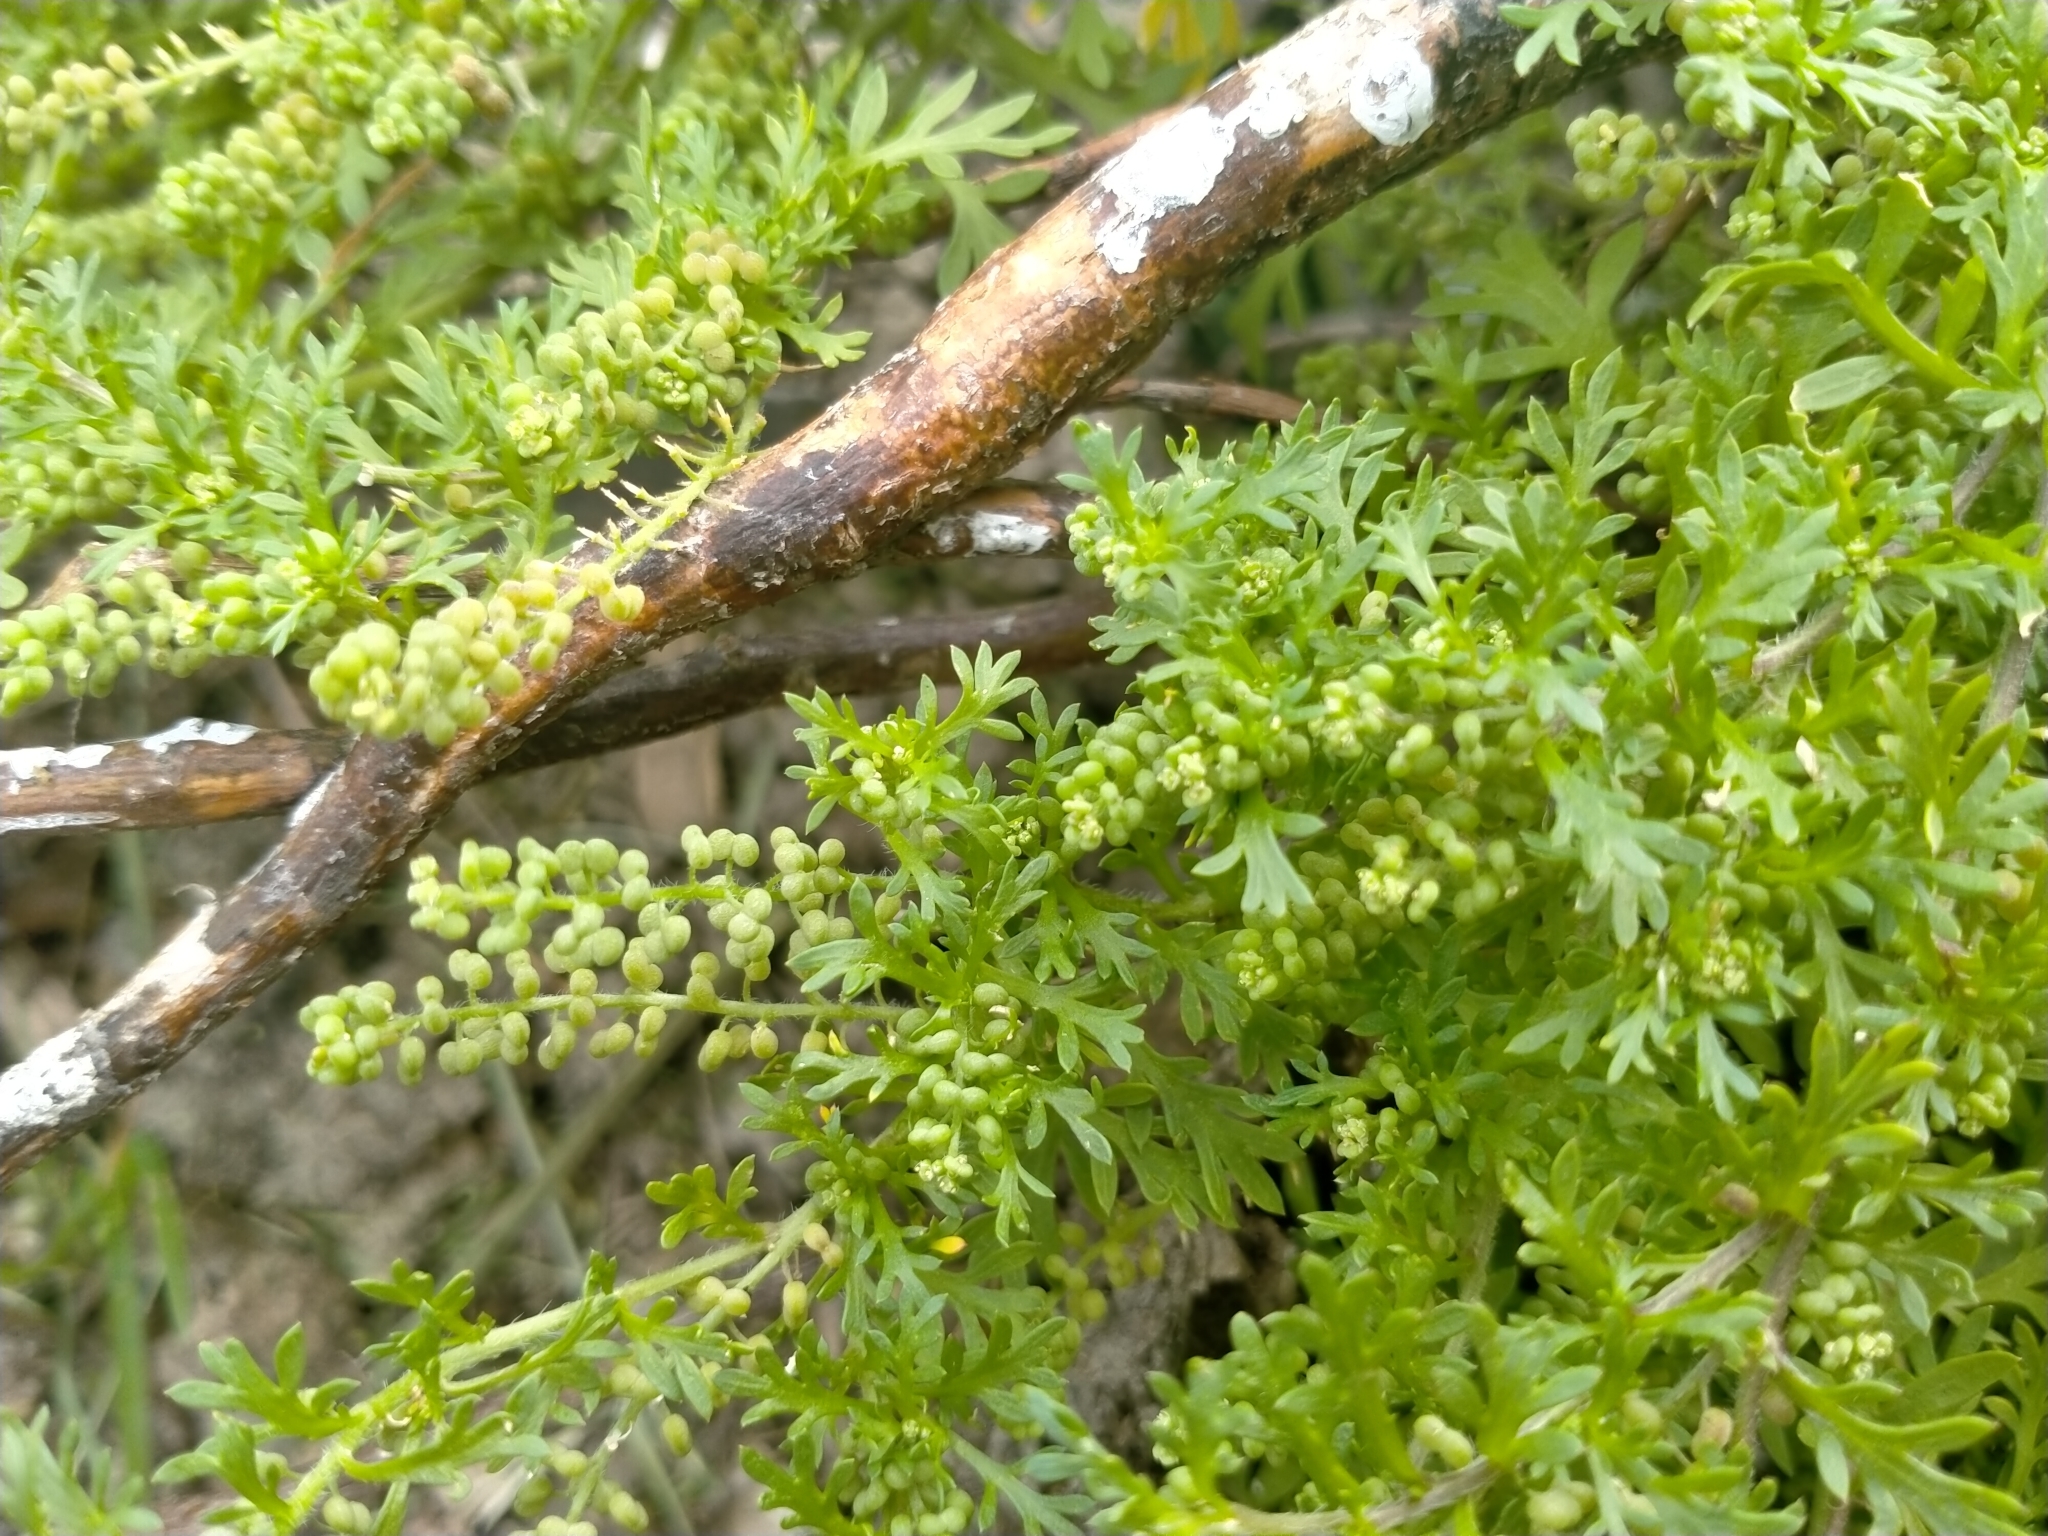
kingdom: Plantae
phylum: Tracheophyta
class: Magnoliopsida
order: Brassicales
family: Brassicaceae
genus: Lepidium
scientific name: Lepidium didymum
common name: Lesser swinecress
